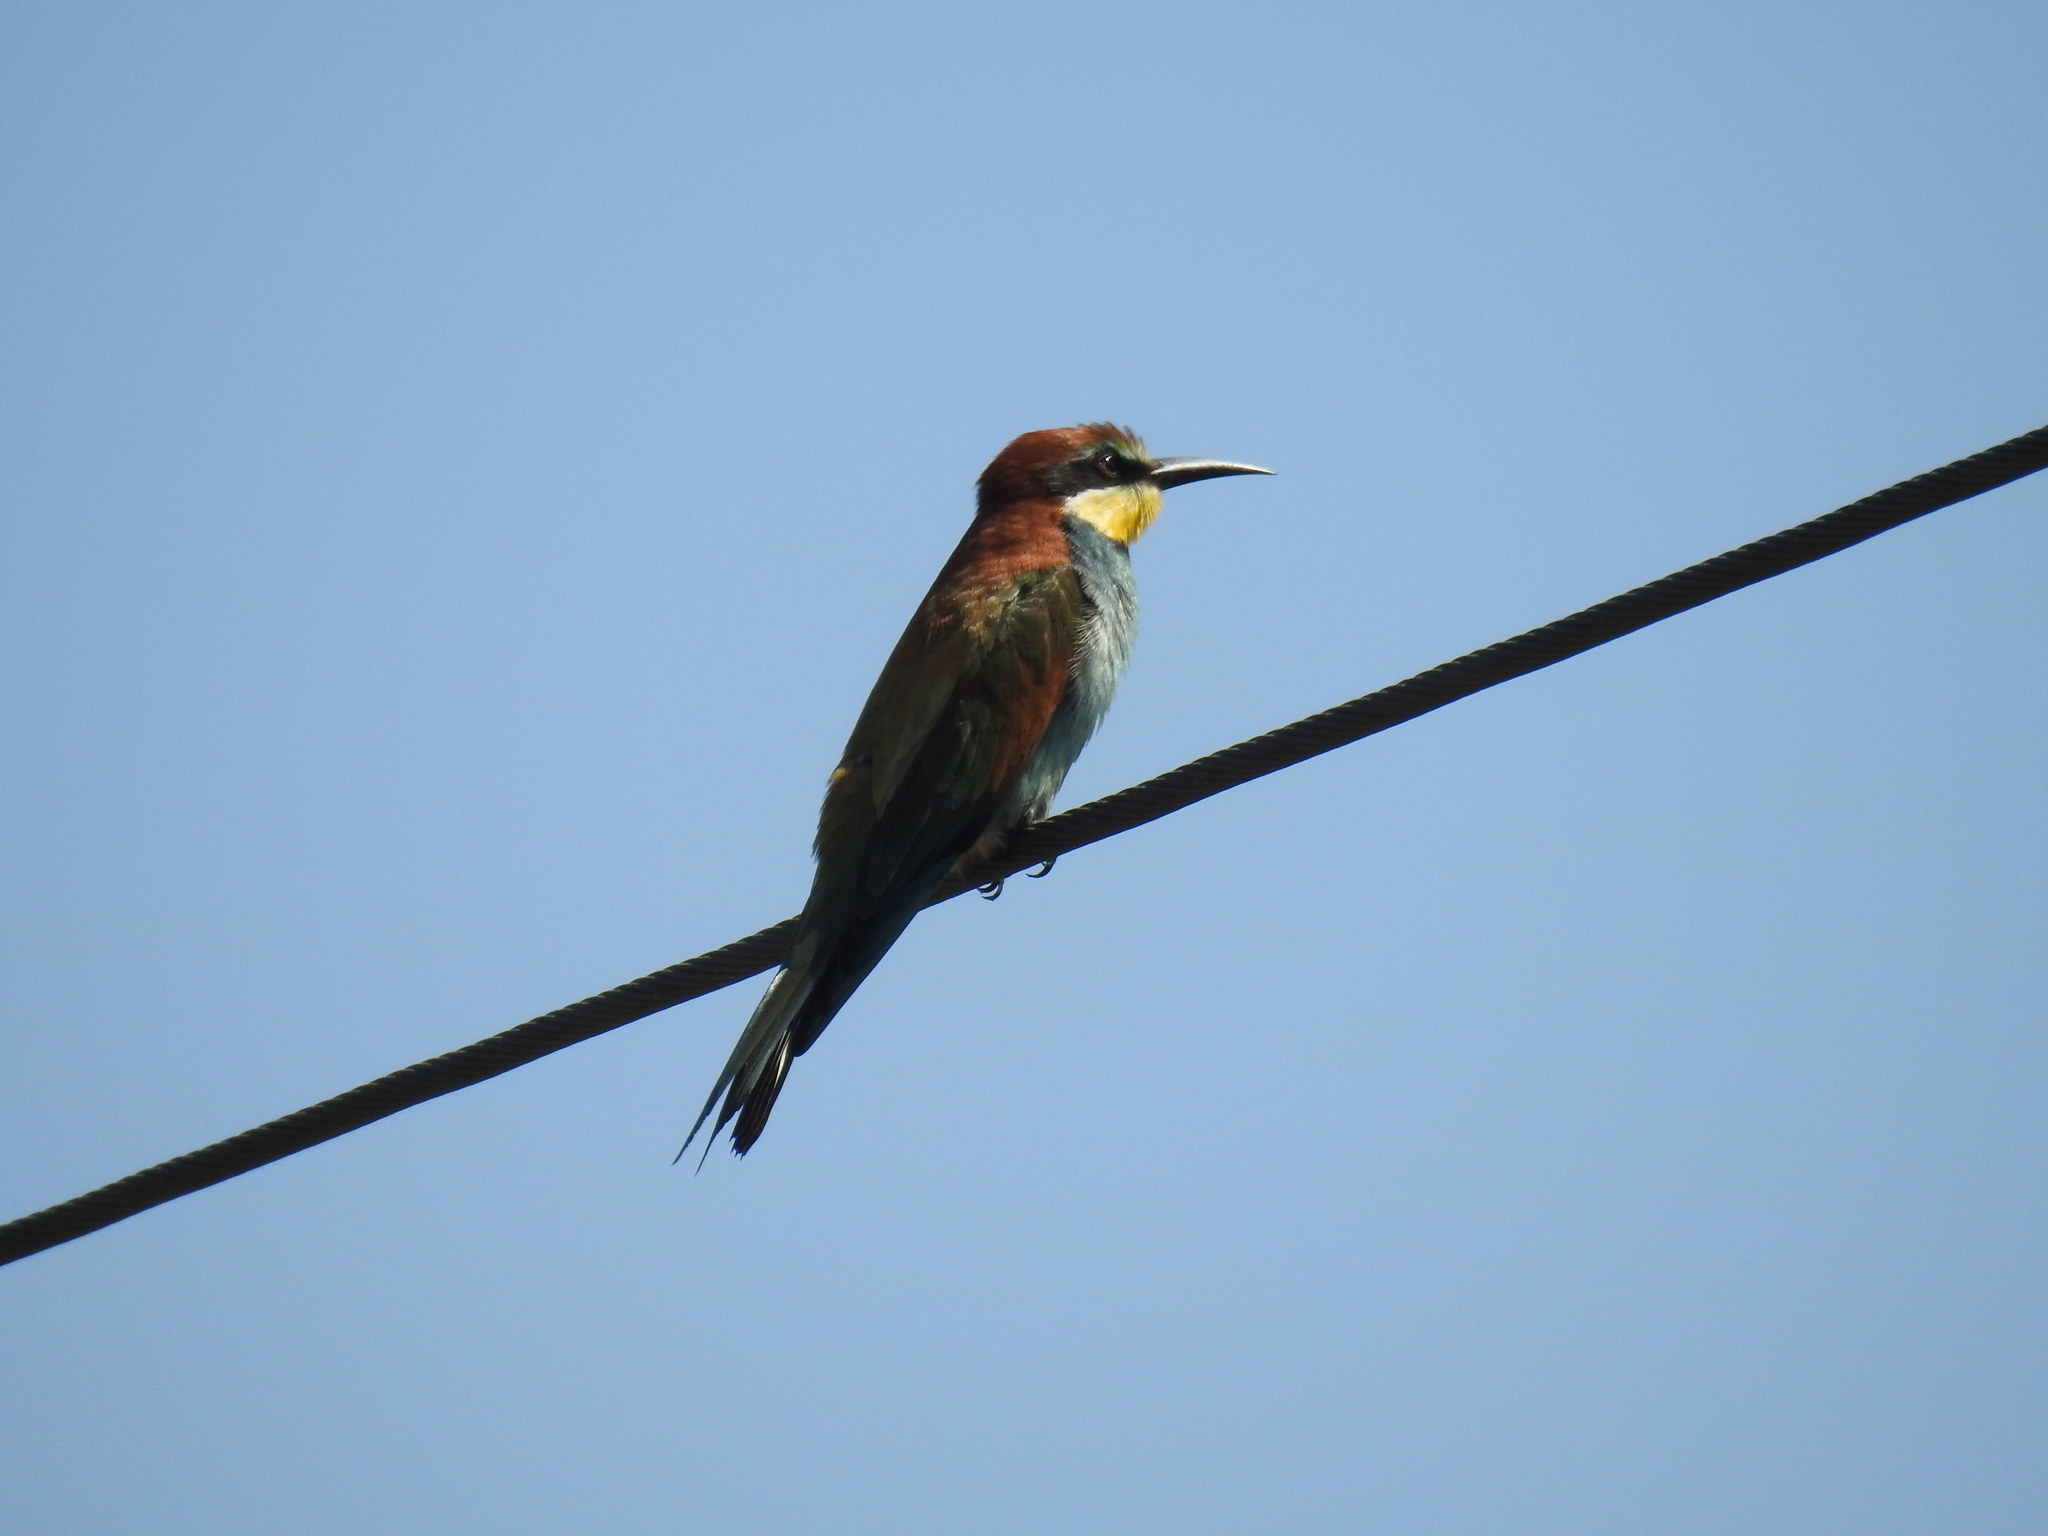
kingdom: Animalia
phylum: Chordata
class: Aves
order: Coraciiformes
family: Meropidae
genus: Merops
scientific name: Merops apiaster
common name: European bee-eater
